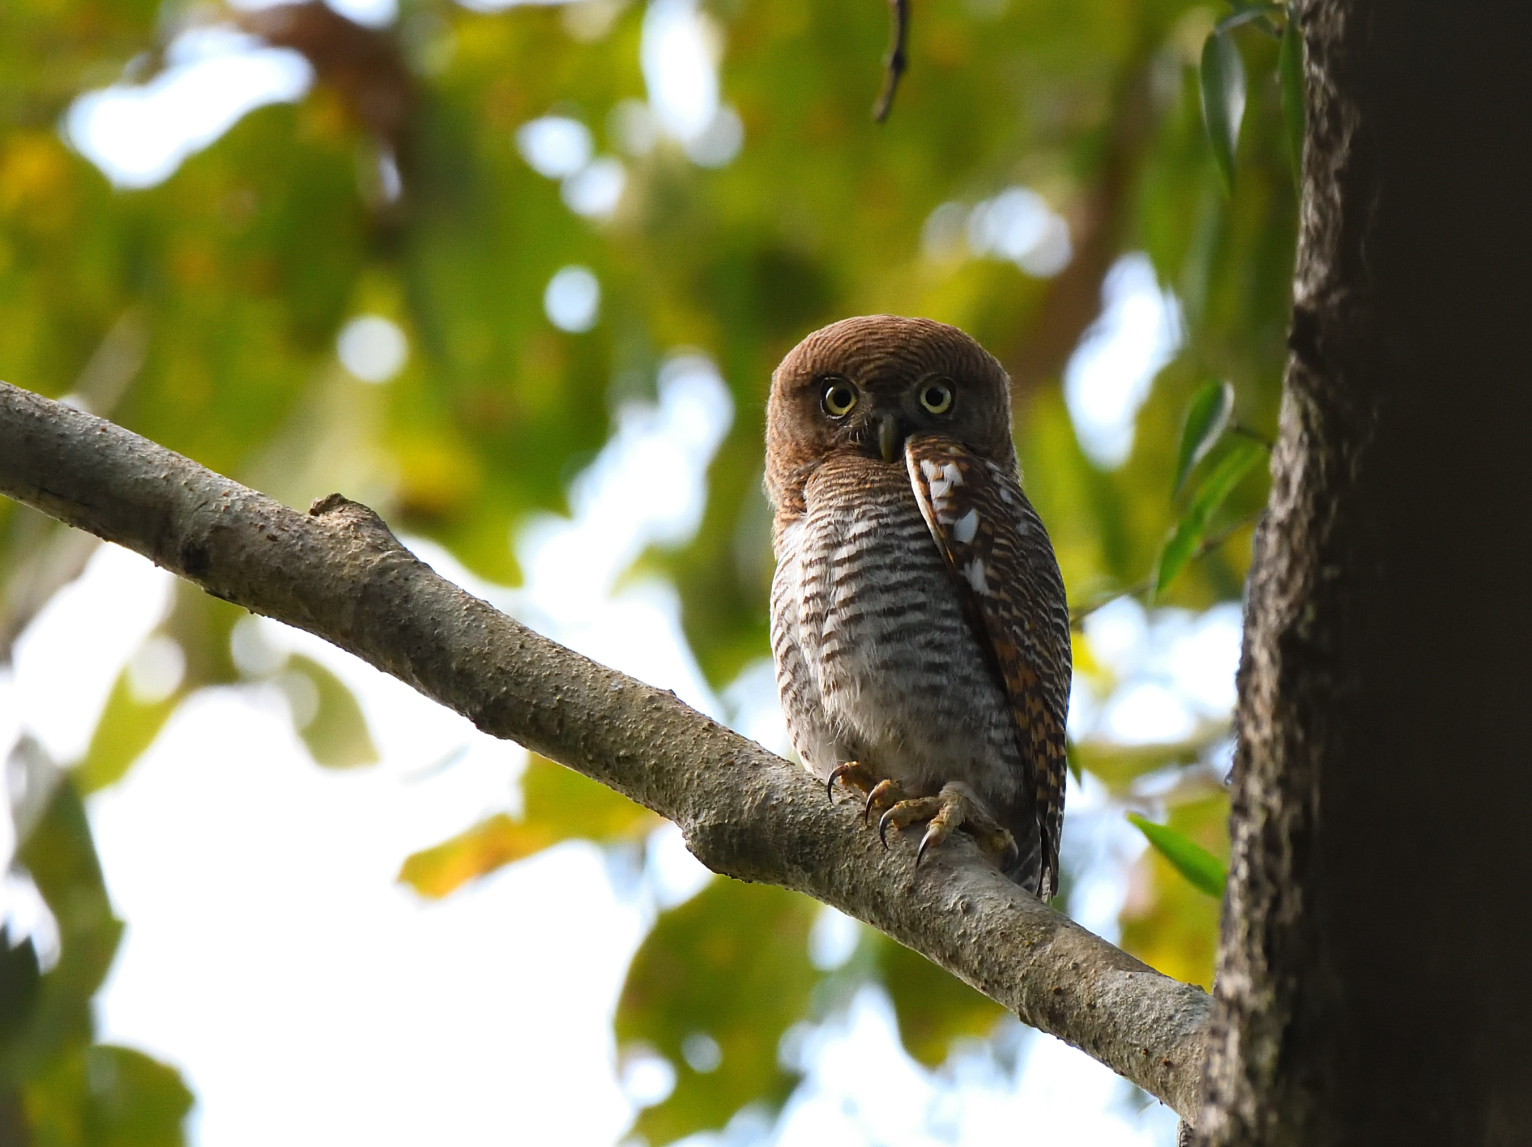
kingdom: Animalia
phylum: Chordata
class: Aves
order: Strigiformes
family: Strigidae
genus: Glaucidium
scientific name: Glaucidium radiatum
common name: Jungle owlet
